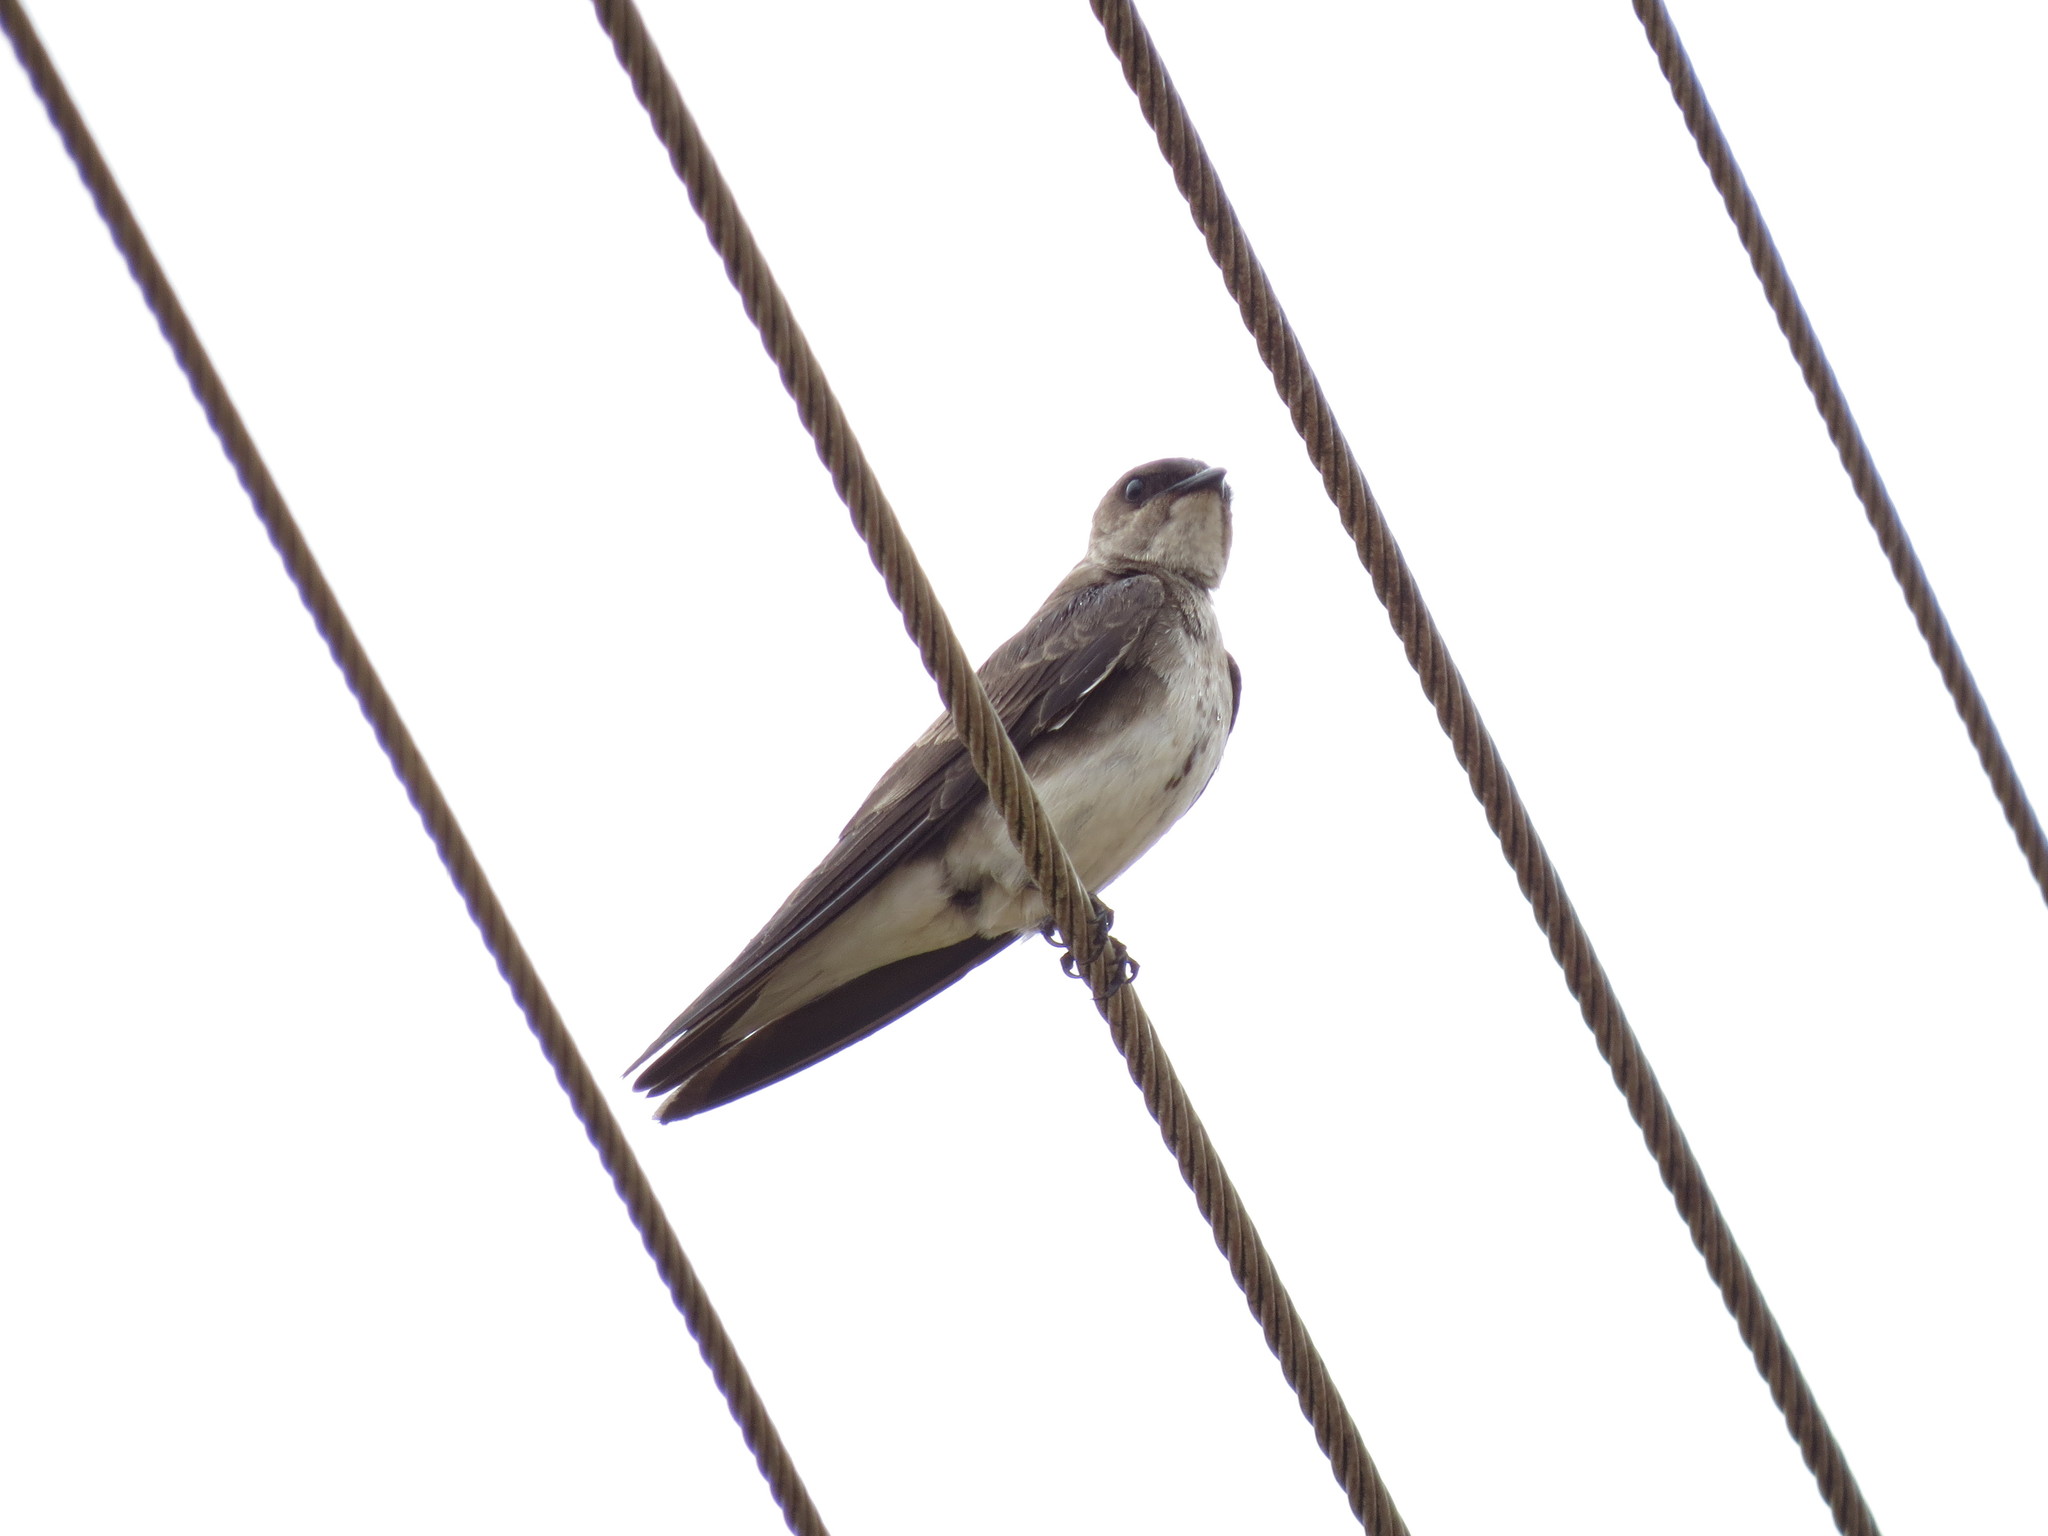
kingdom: Animalia
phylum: Chordata
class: Aves
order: Passeriformes
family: Hirundinidae
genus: Progne
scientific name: Progne tapera
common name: Brown-chested martin
